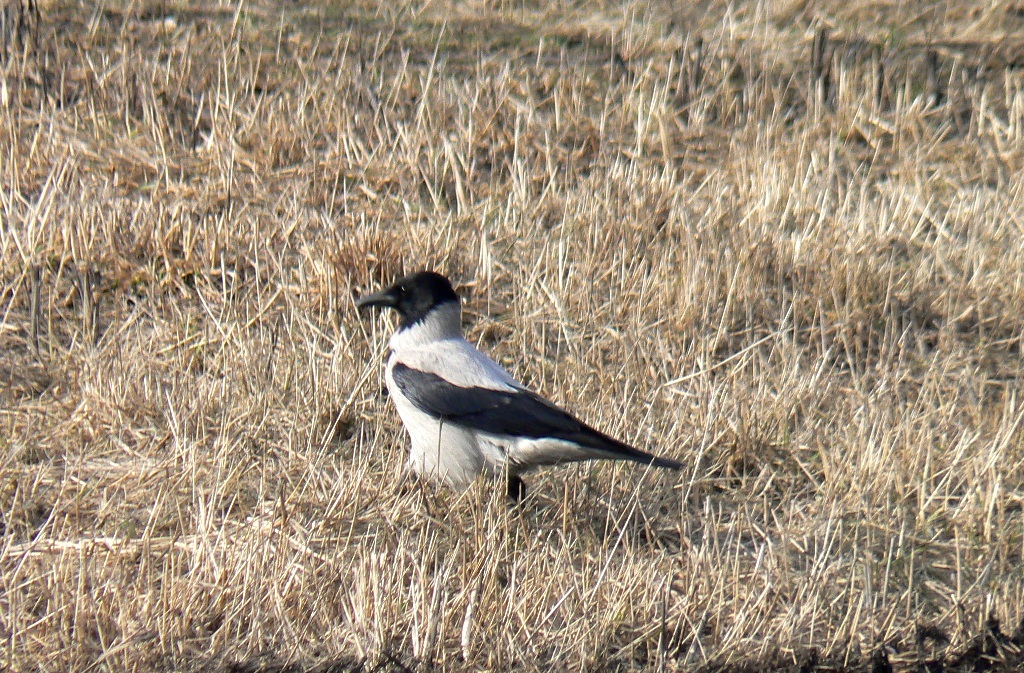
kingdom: Animalia
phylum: Chordata
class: Aves
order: Passeriformes
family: Corvidae
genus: Corvus
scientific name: Corvus cornix
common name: Hooded crow
